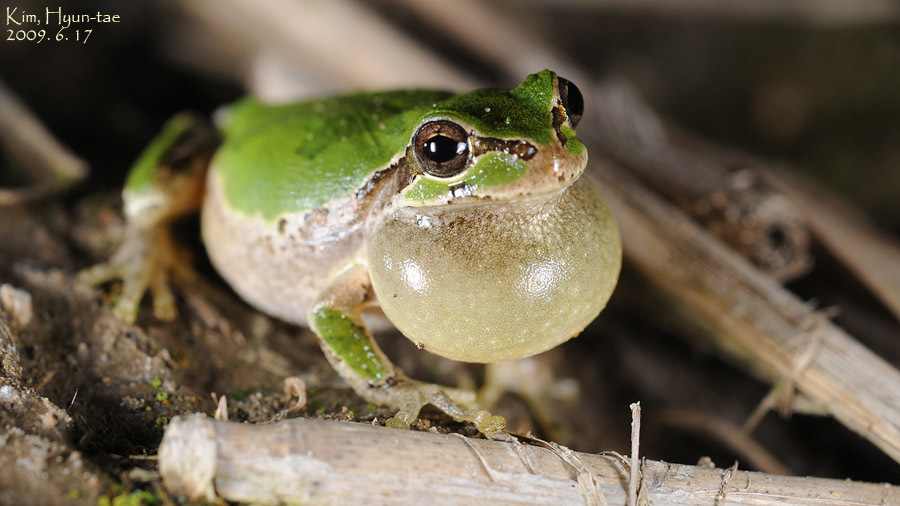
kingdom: Animalia
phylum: Chordata
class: Amphibia
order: Anura
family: Hylidae
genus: Dryophytes
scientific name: Dryophytes japonicus
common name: Japanese treefrog
